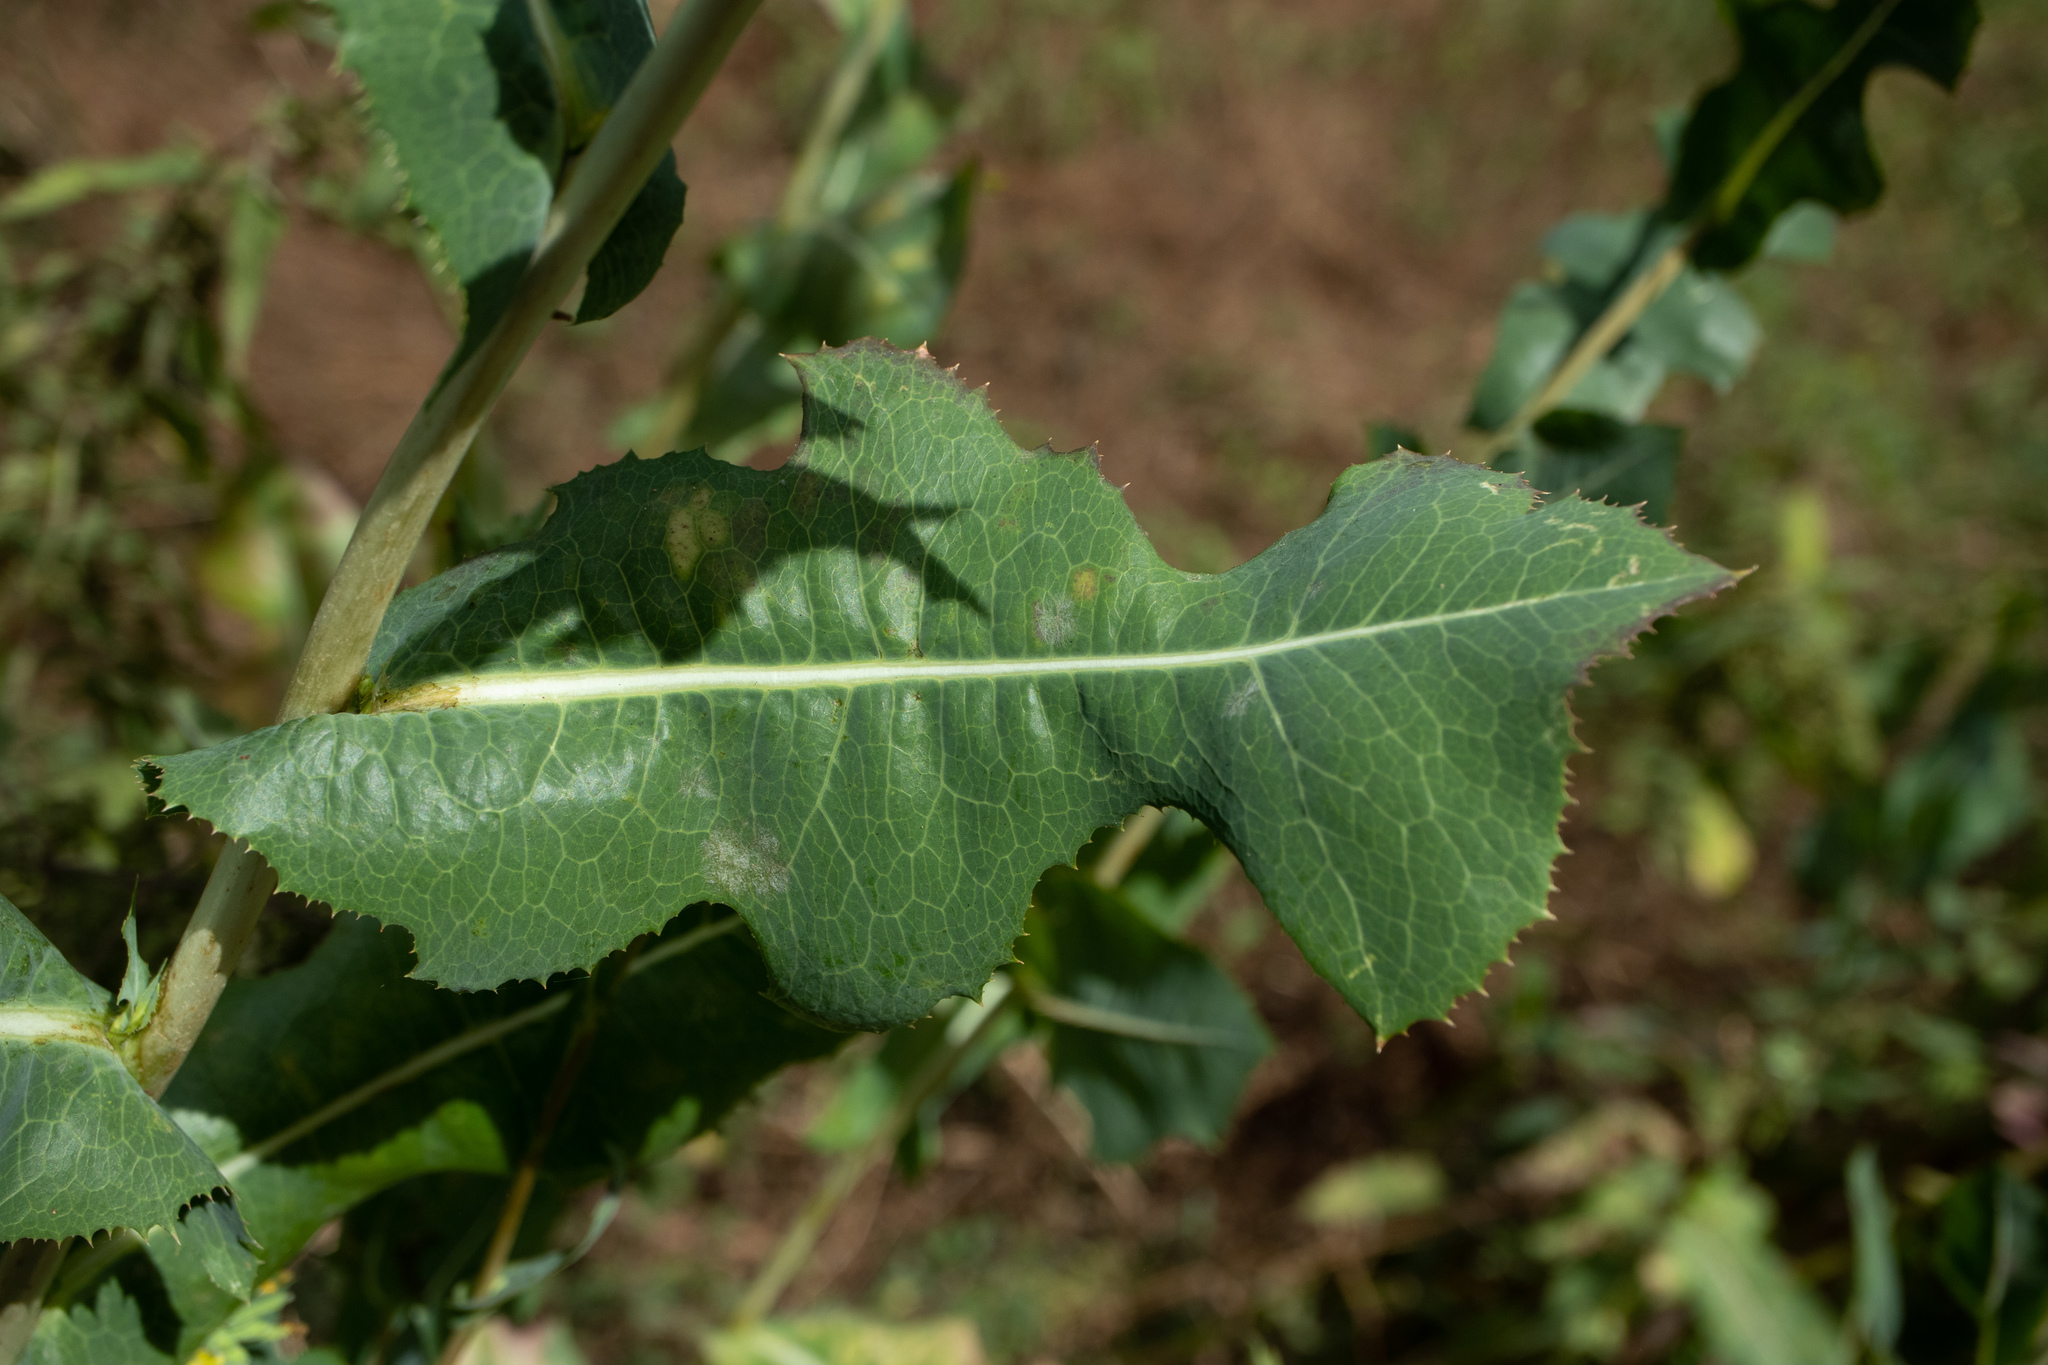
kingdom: Plantae
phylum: Tracheophyta
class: Magnoliopsida
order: Asterales
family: Asteraceae
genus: Lactuca
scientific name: Lactuca serriola
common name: Prickly lettuce
